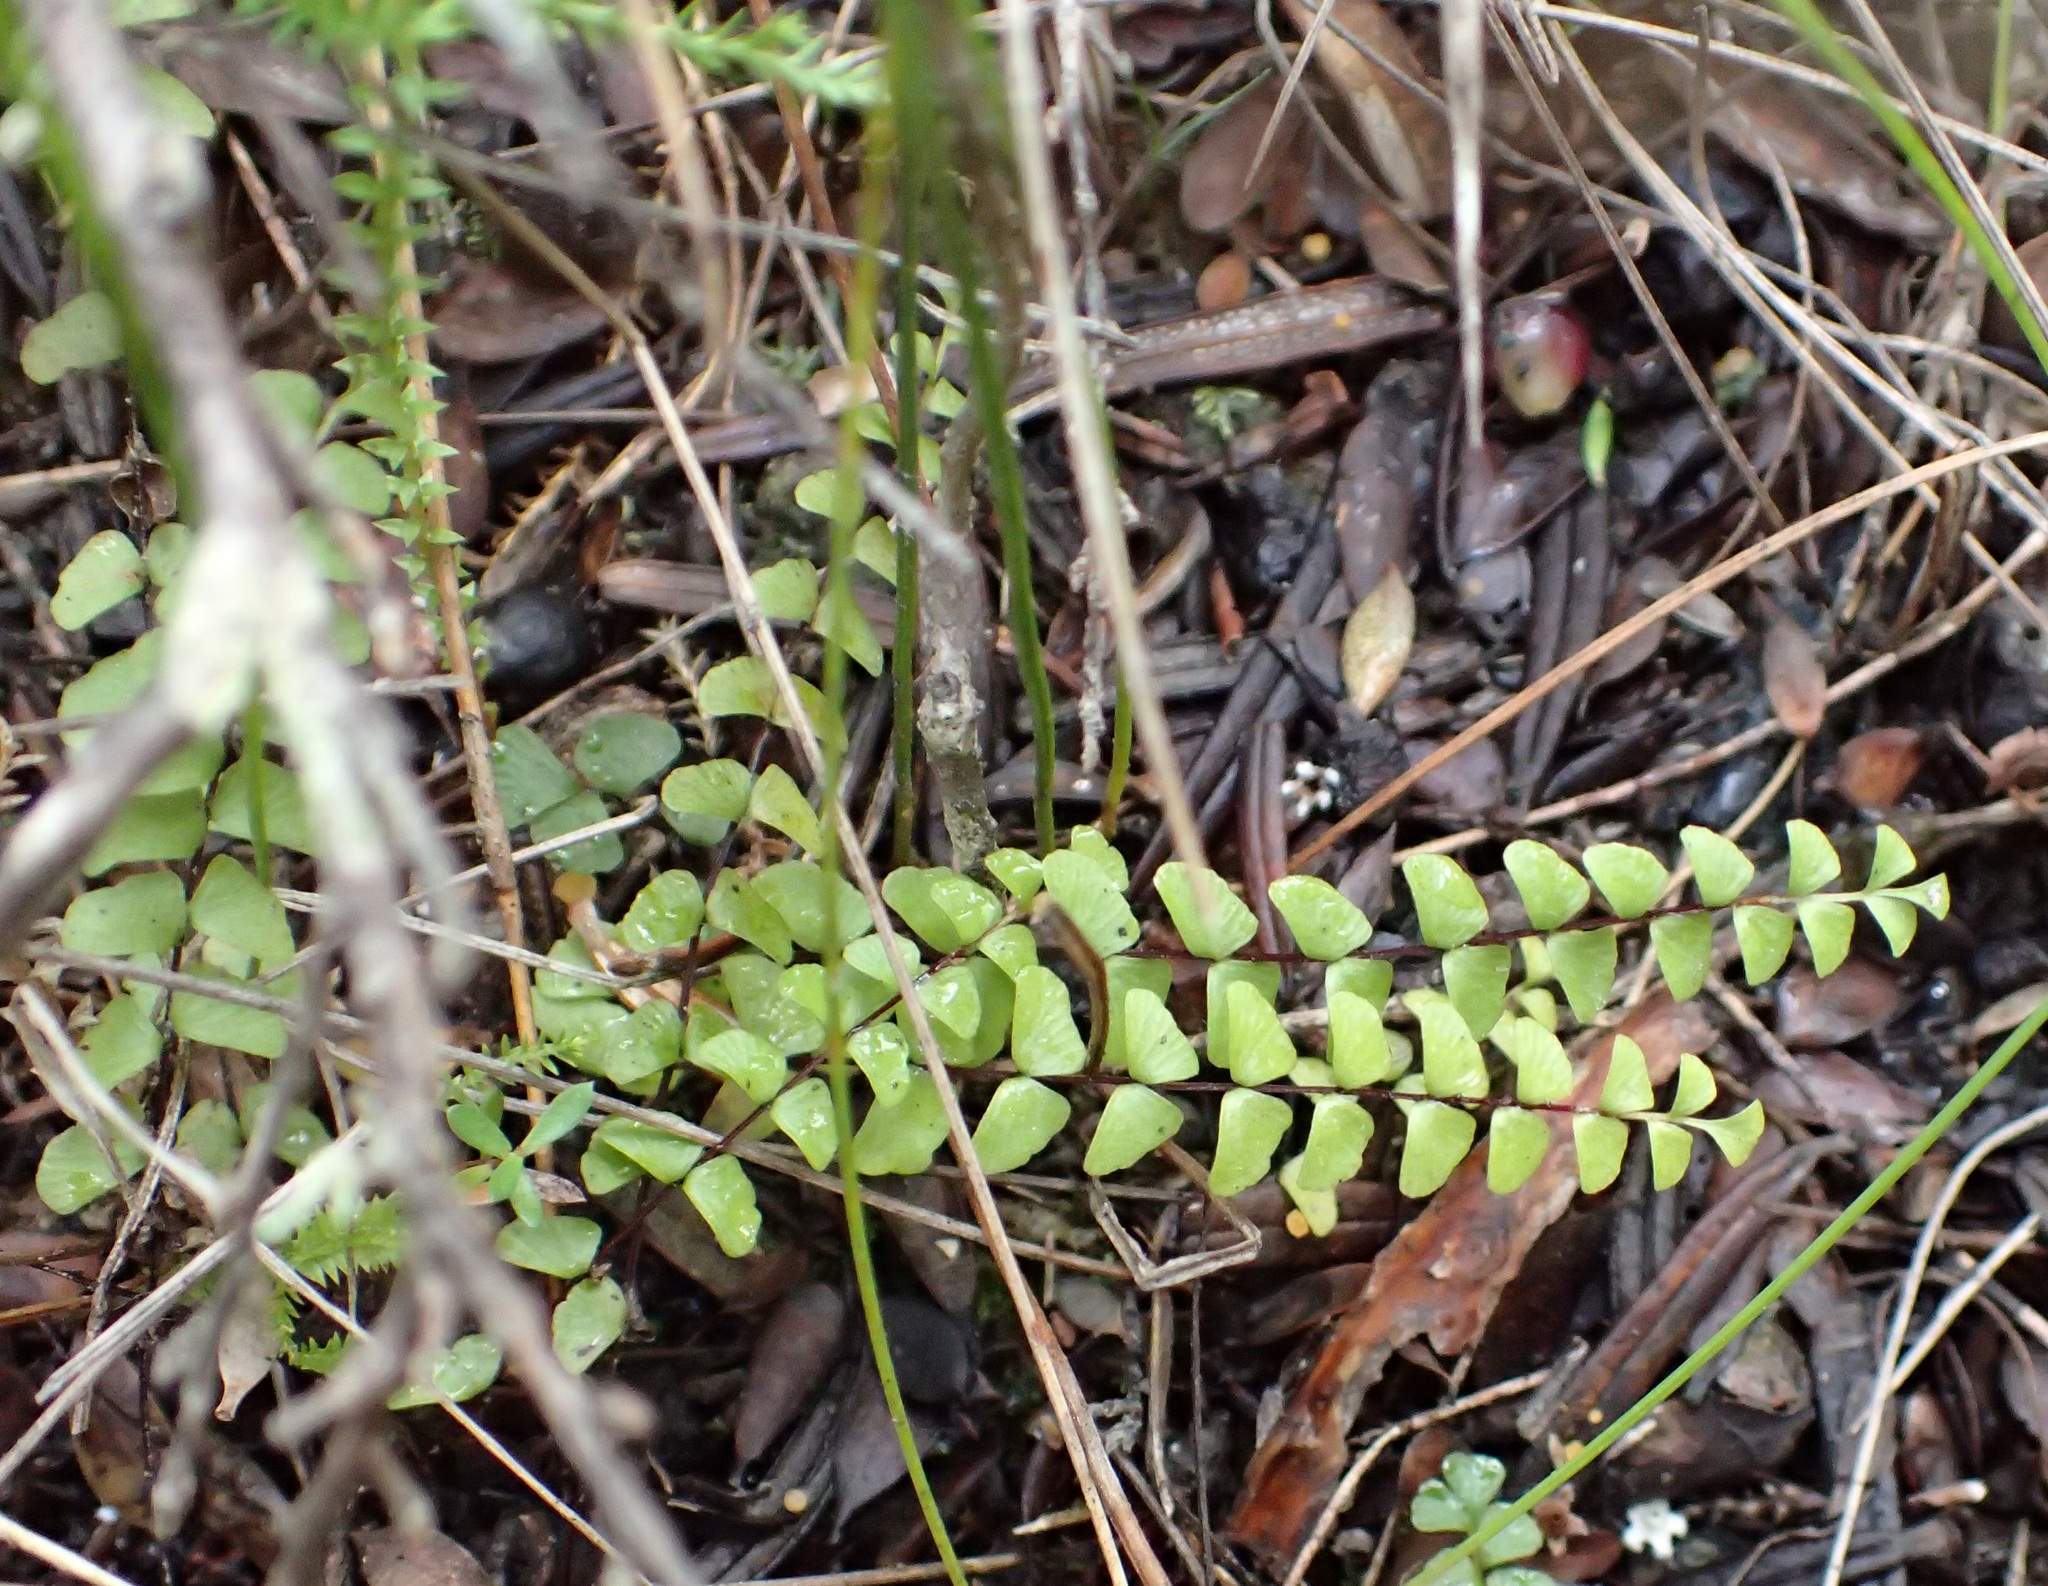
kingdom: Plantae
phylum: Tracheophyta
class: Polypodiopsida
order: Polypodiales
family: Lindsaeaceae
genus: Lindsaea
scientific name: Lindsaea linearis
